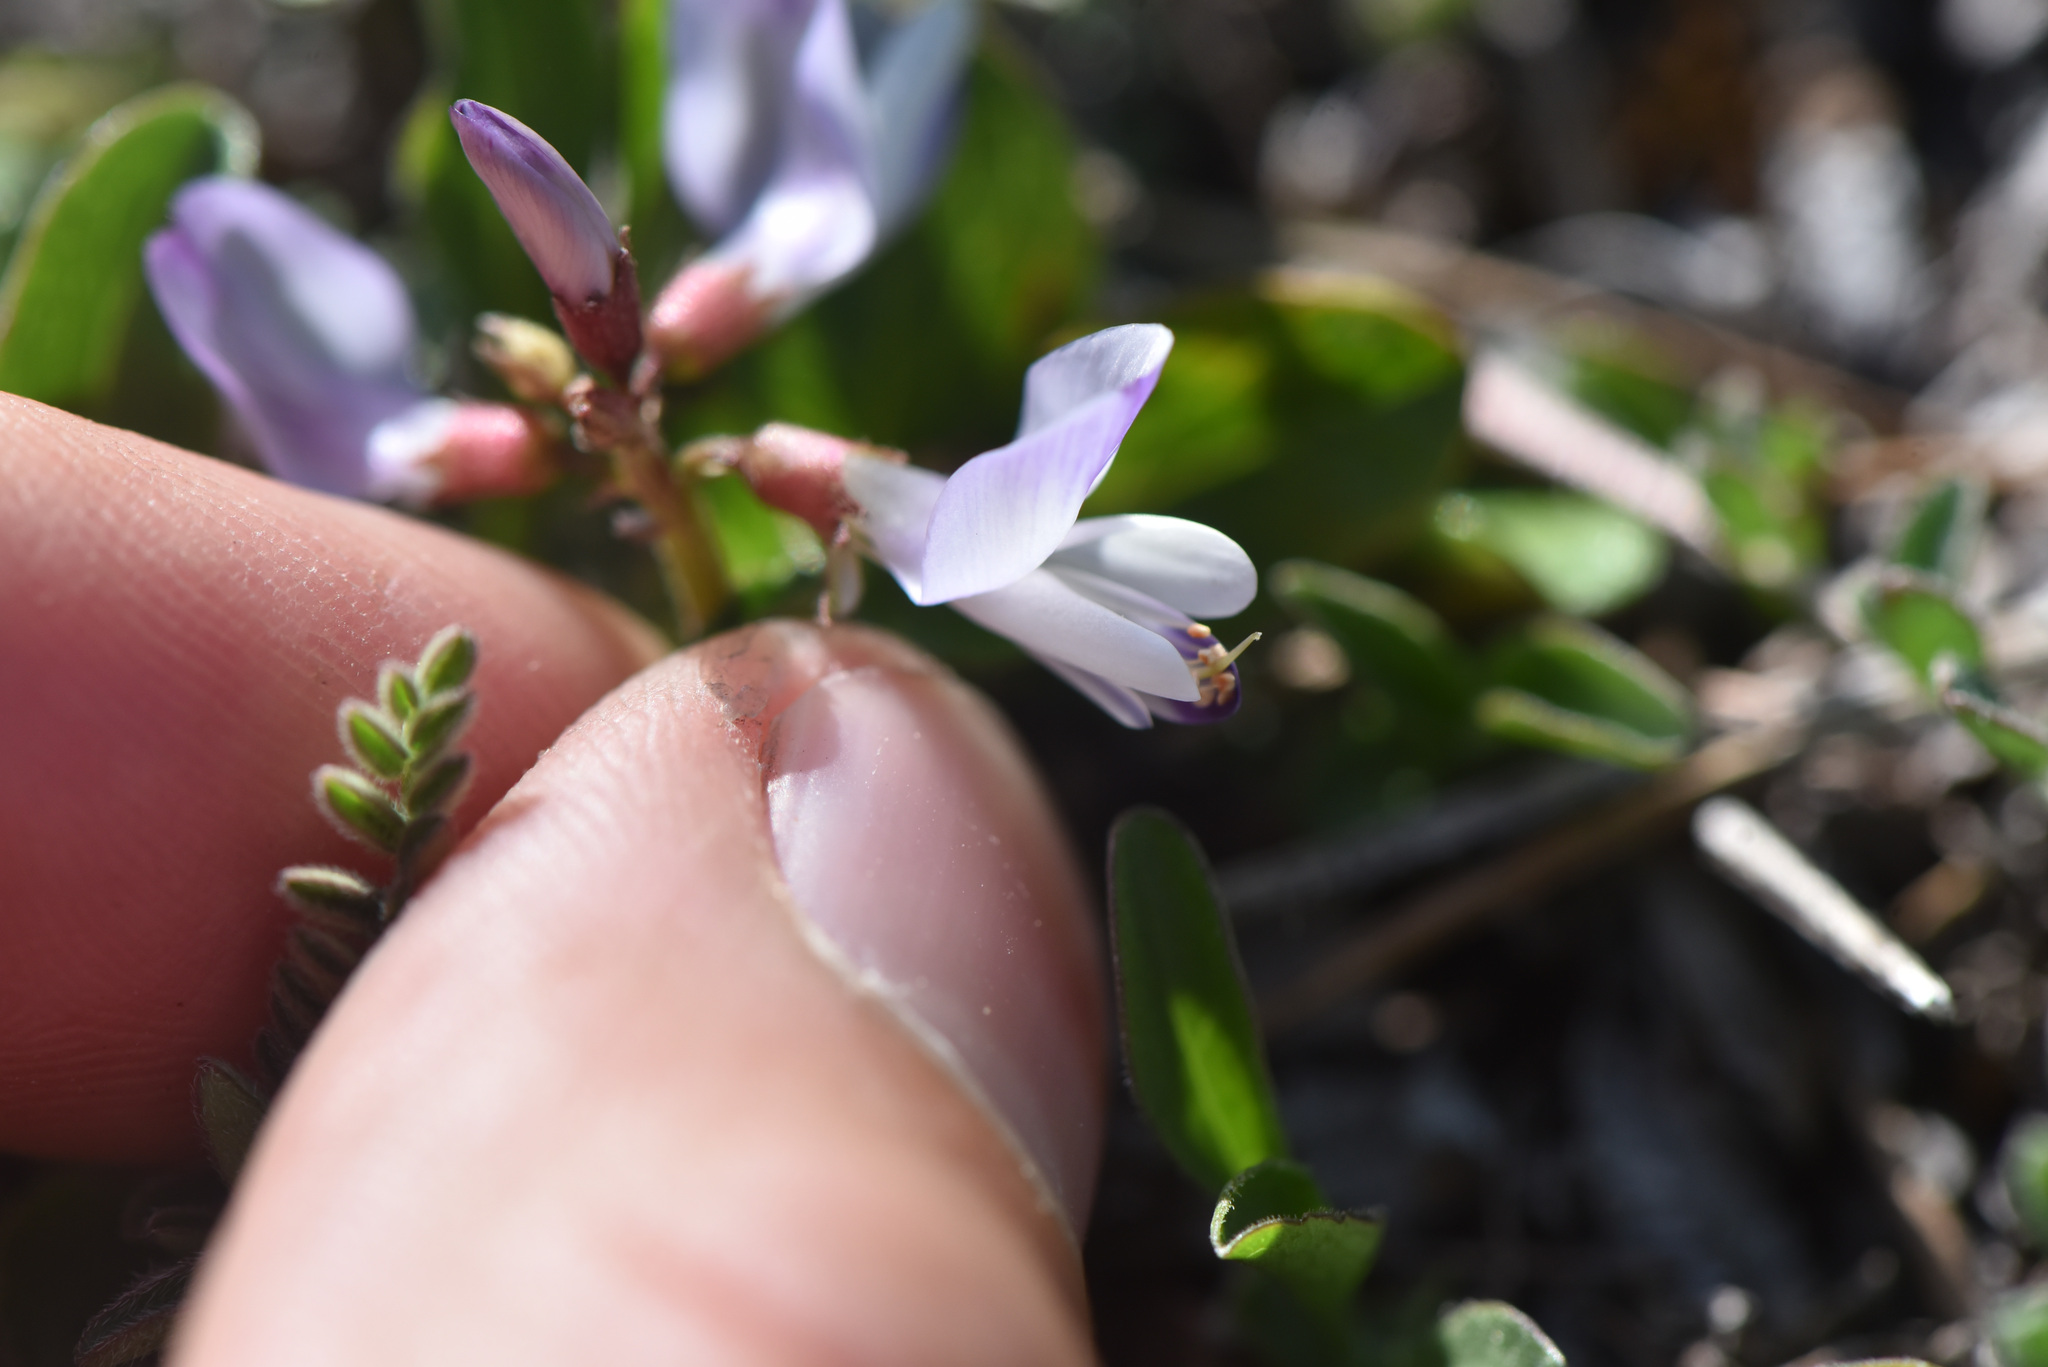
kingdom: Plantae
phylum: Tracheophyta
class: Magnoliopsida
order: Fabales
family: Fabaceae
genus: Astragalus
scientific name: Astragalus alpinus
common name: Alpine milk-vetch
